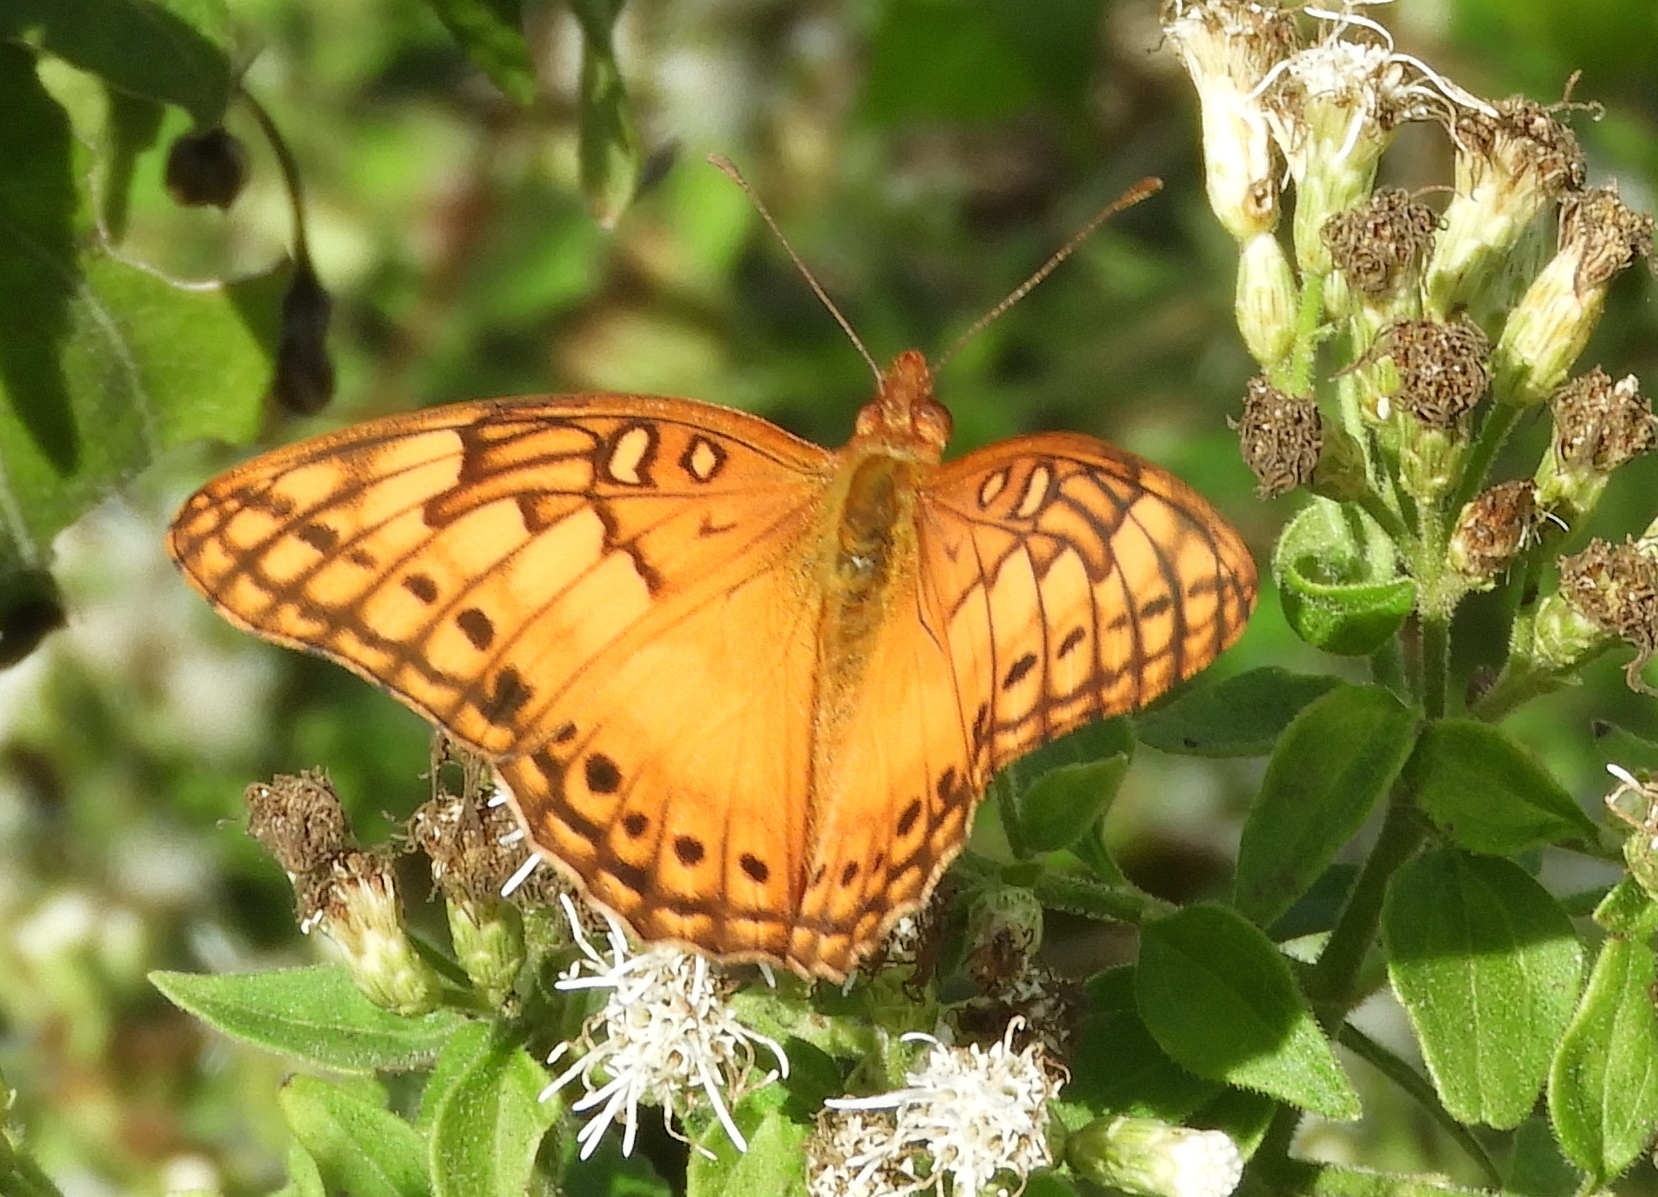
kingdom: Animalia
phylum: Arthropoda
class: Insecta
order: Lepidoptera
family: Nymphalidae
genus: Euptoieta
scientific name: Euptoieta hegesia
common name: Mexican fritillary
